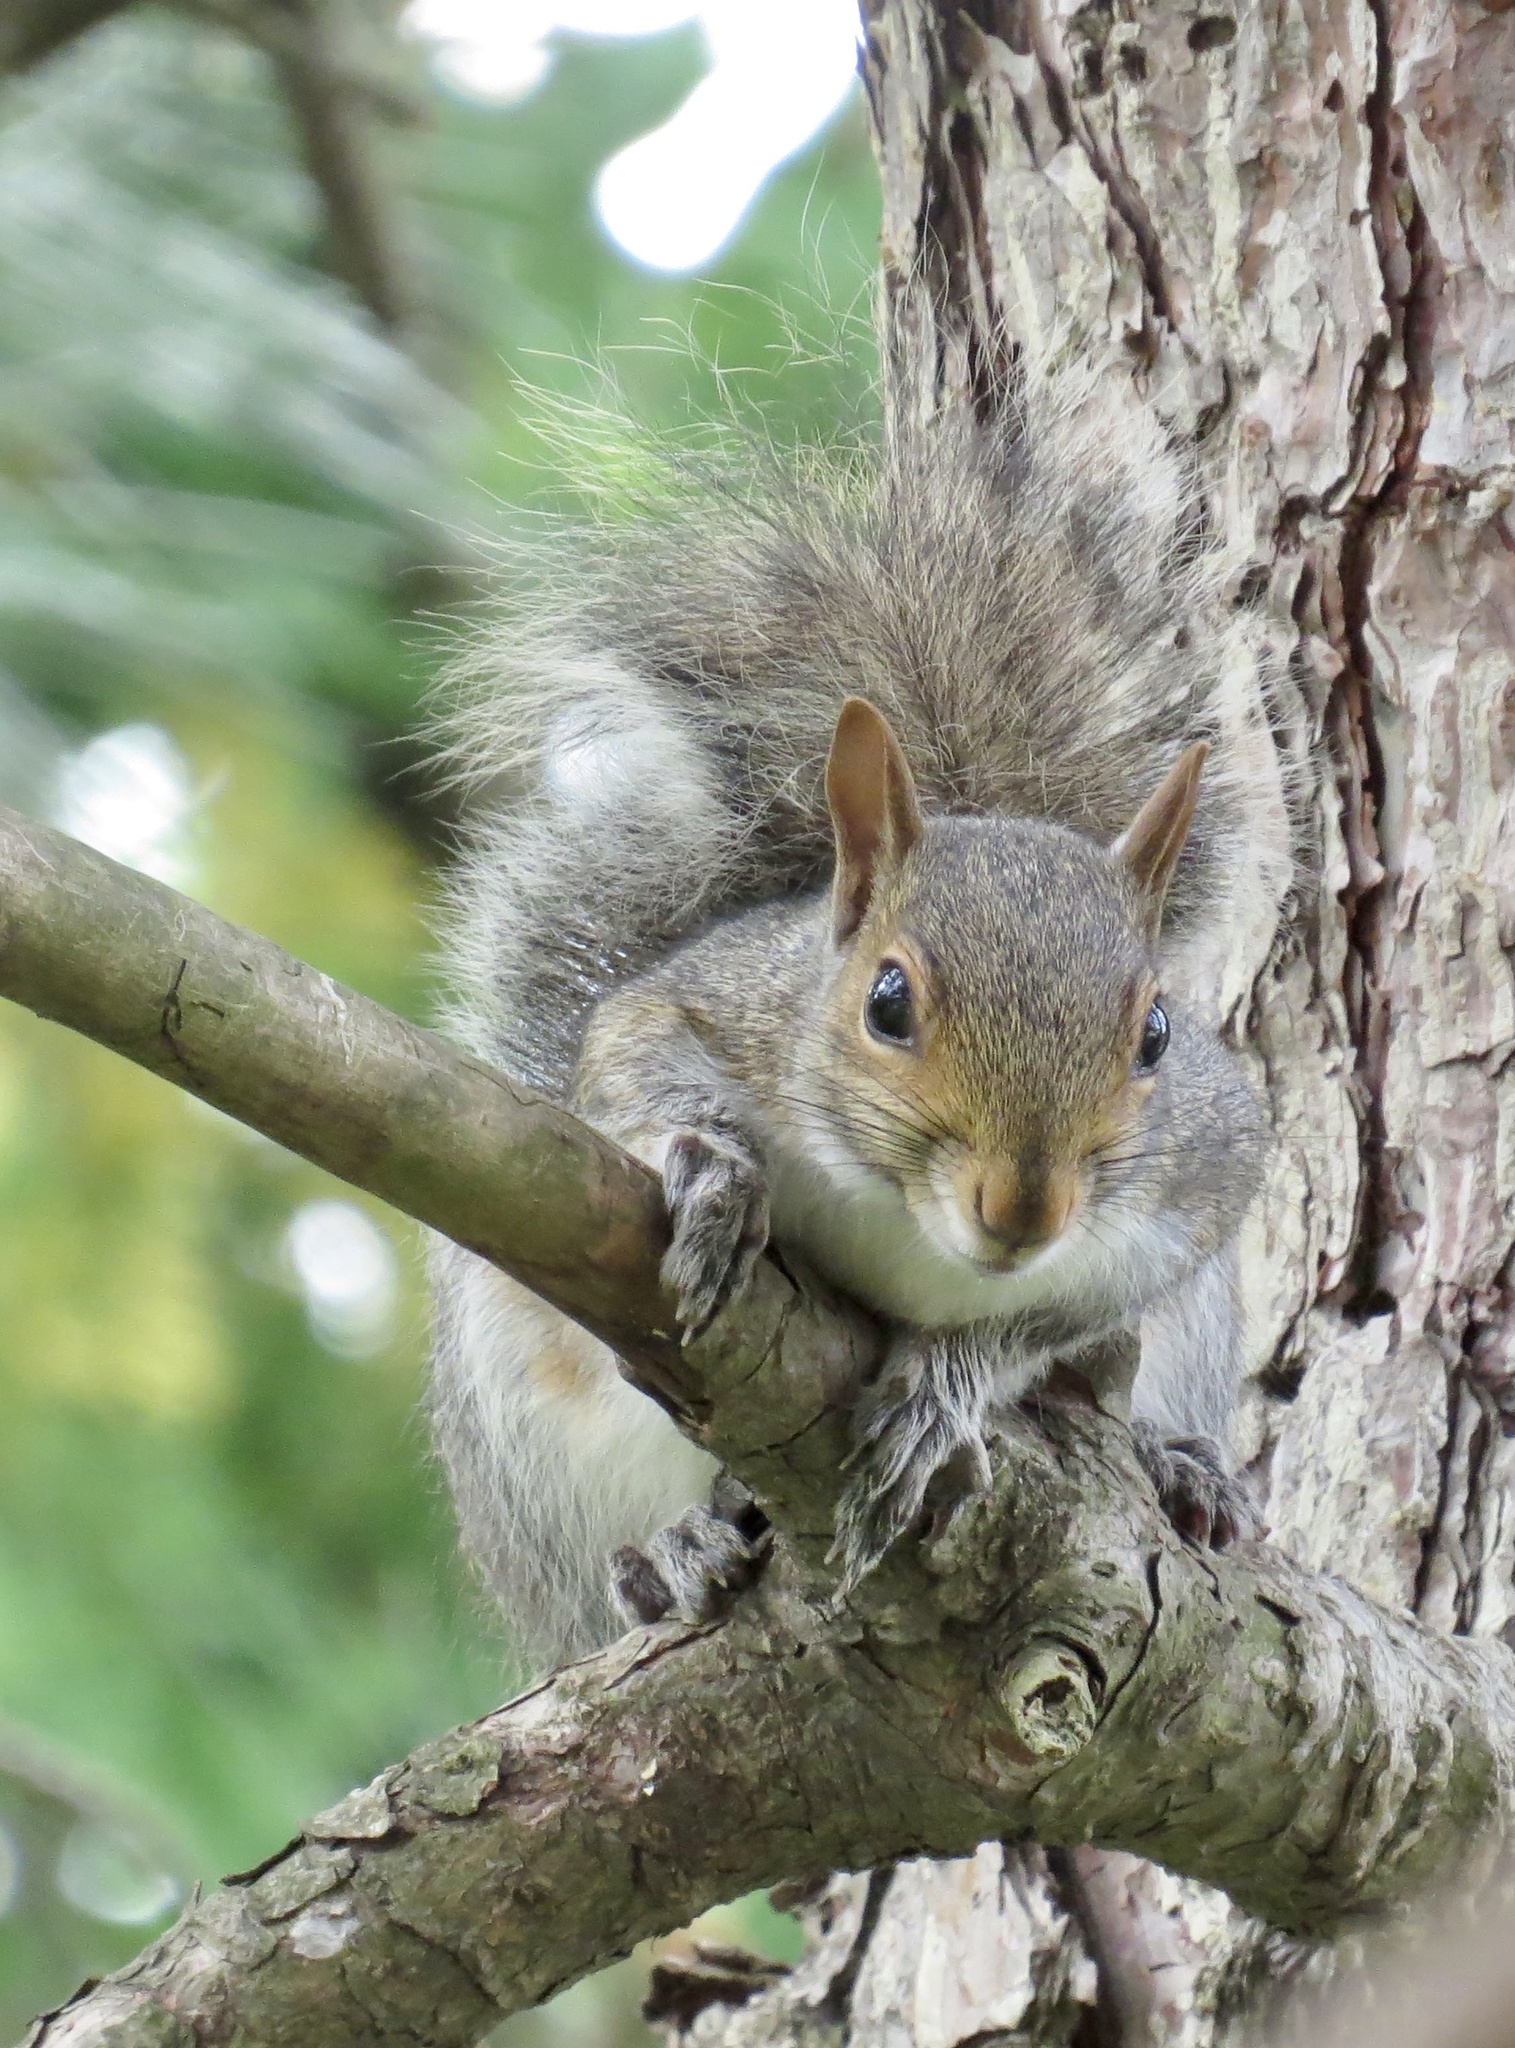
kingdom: Animalia
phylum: Chordata
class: Mammalia
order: Rodentia
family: Sciuridae
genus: Sciurus
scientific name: Sciurus carolinensis
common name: Eastern gray squirrel
